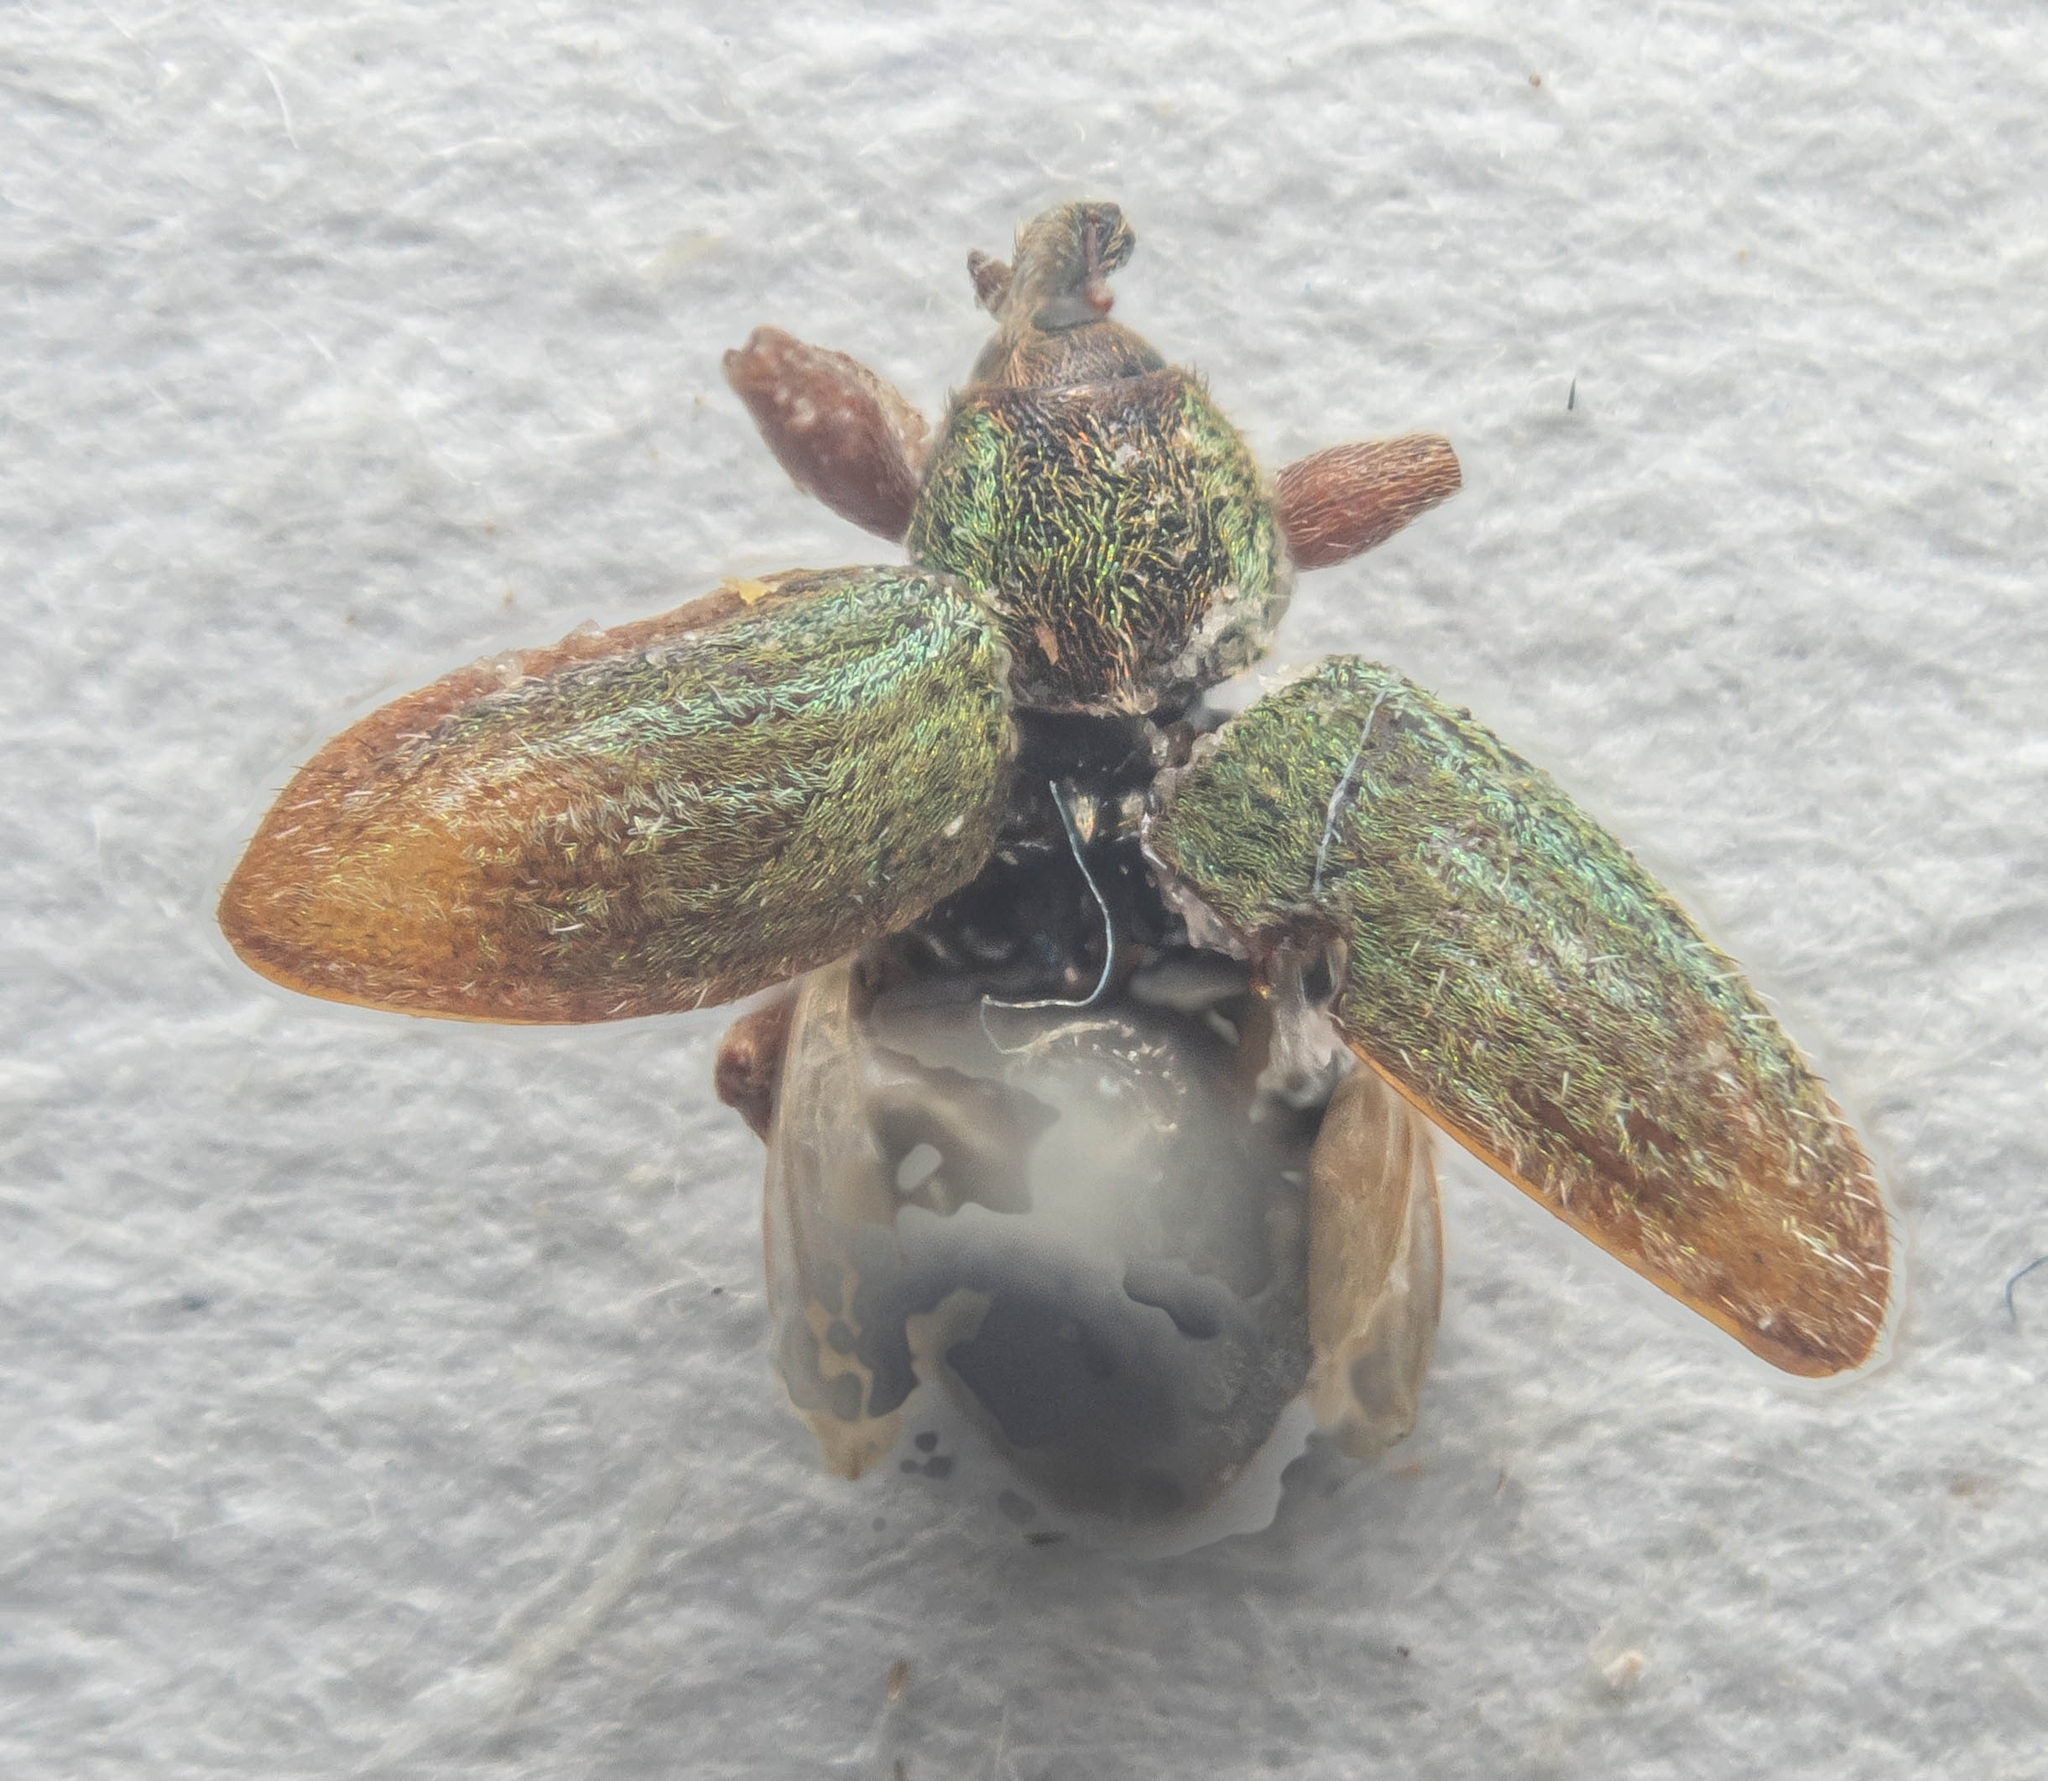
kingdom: Animalia
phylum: Arthropoda
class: Insecta
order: Coleoptera
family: Curculionidae
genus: Hypera
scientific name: Hypera nigrirostris
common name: Black-beaked green weevil
